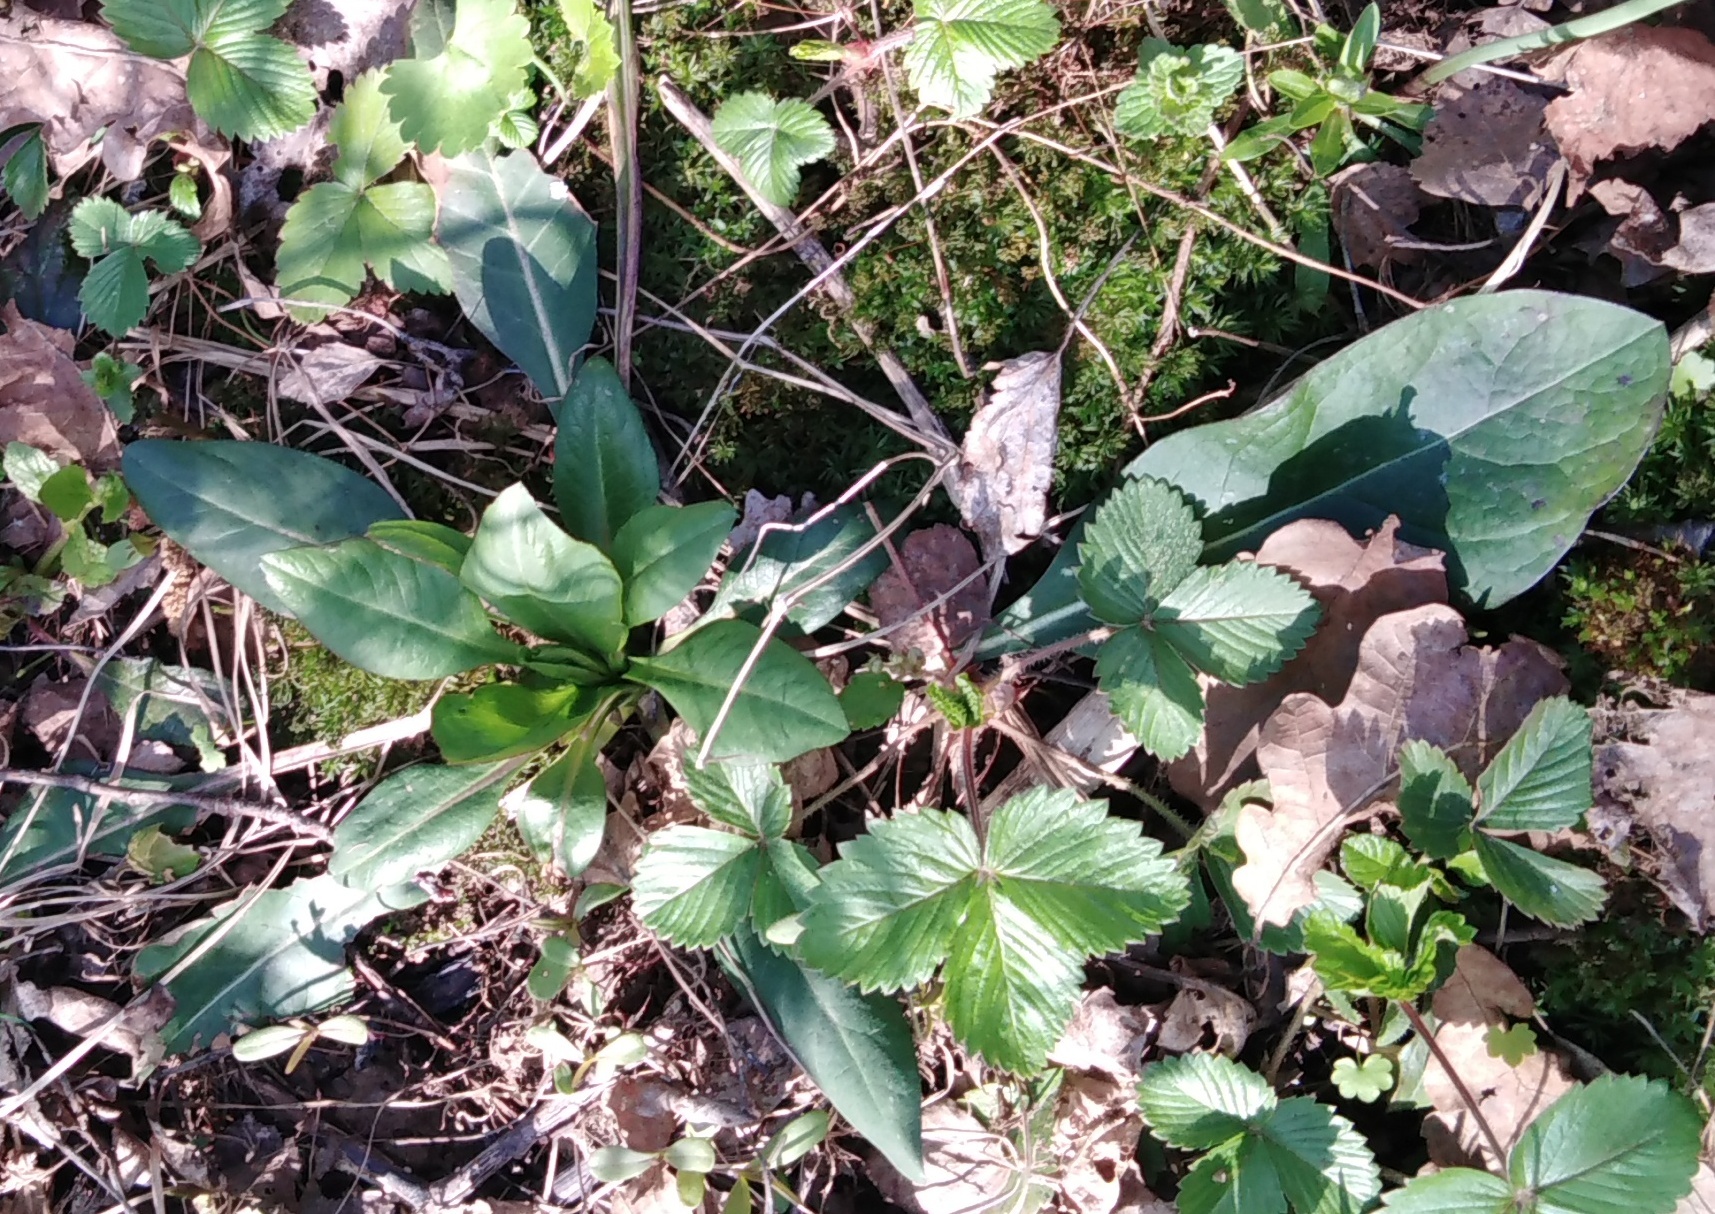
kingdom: Plantae
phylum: Tracheophyta
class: Magnoliopsida
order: Dipsacales
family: Caprifoliaceae
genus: Succisa
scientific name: Succisa pratensis
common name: Devil's-bit
